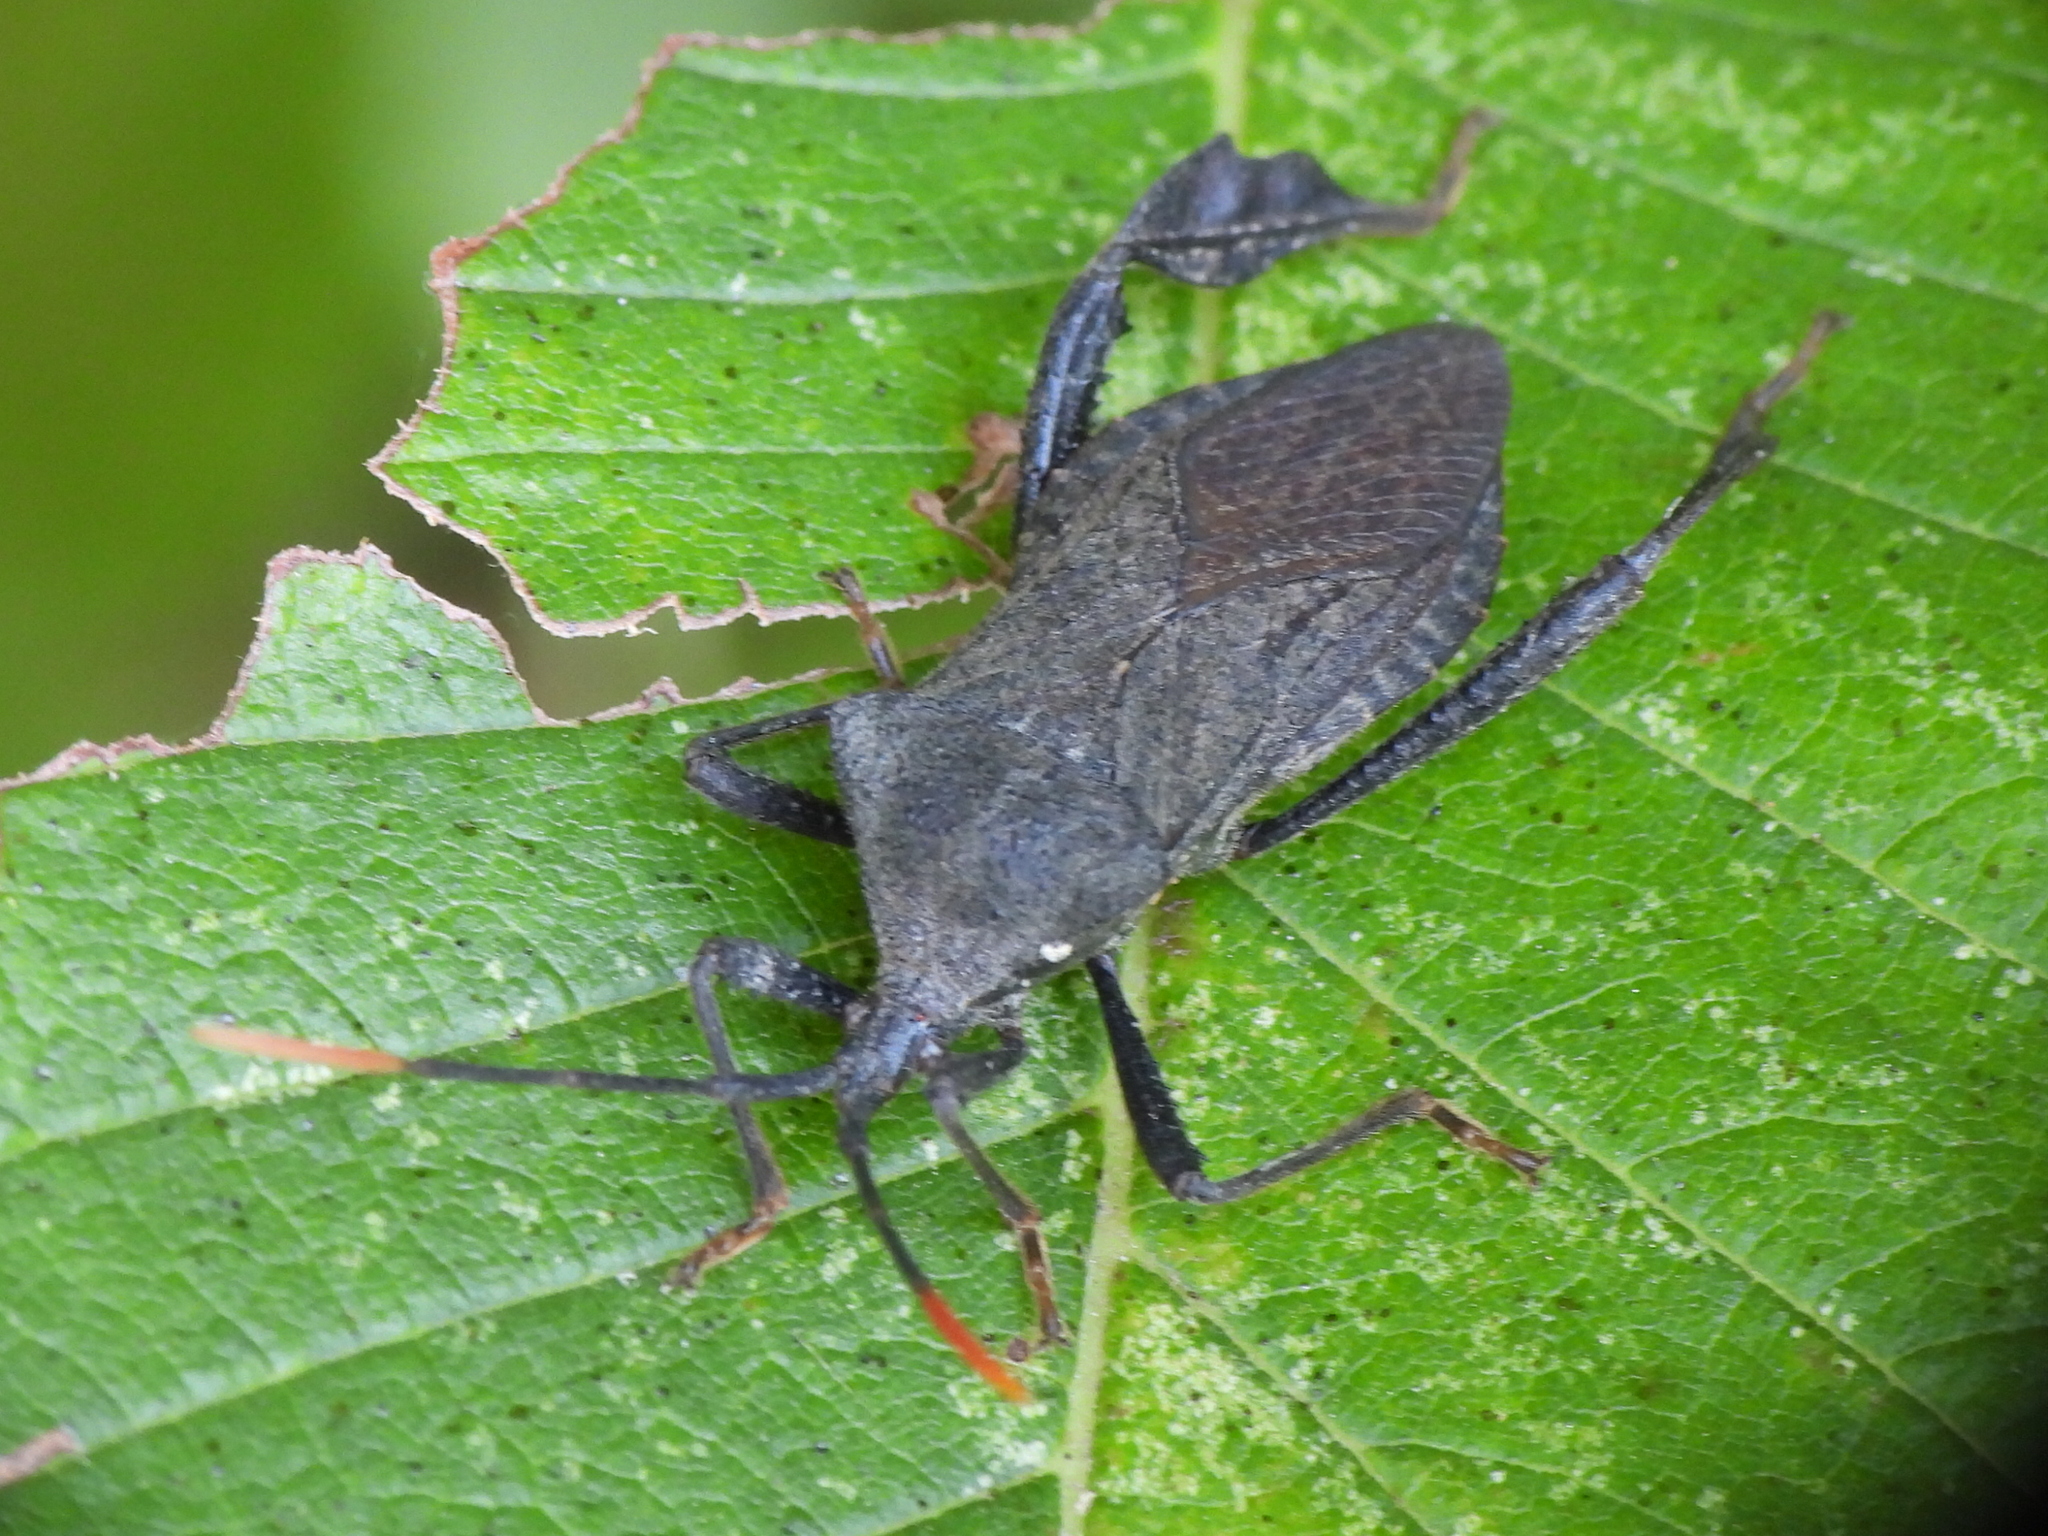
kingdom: Animalia
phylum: Arthropoda
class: Insecta
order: Hemiptera
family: Coreidae
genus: Acanthocephala
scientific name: Acanthocephala terminalis
